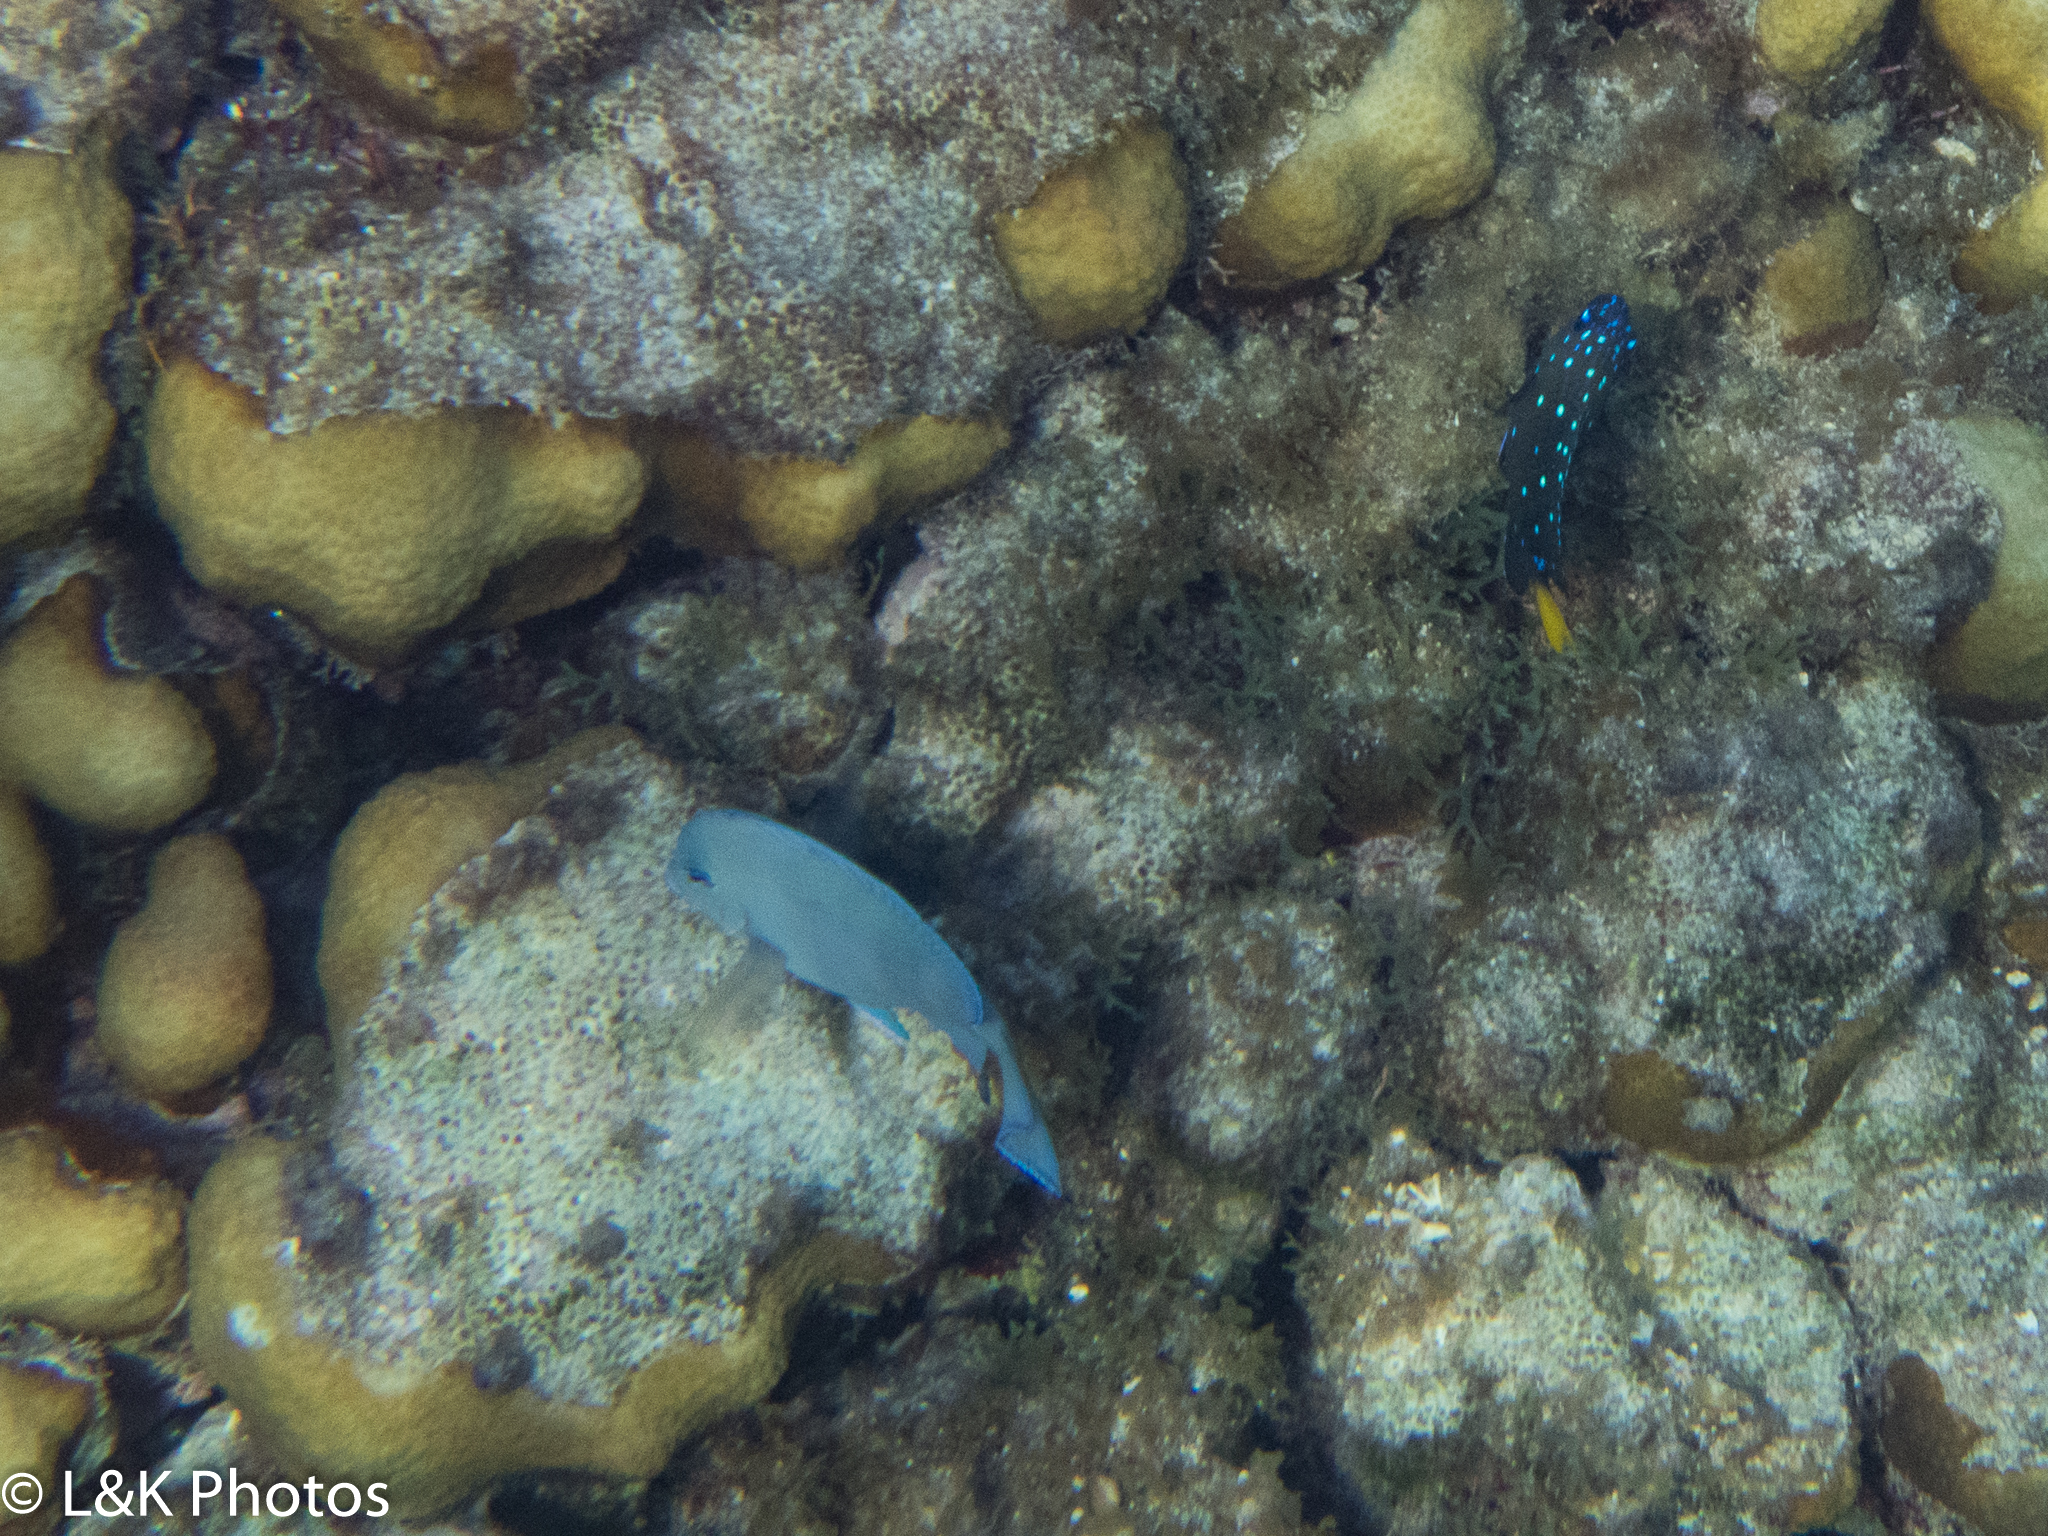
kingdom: Animalia
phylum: Chordata
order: Perciformes
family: Pomacentridae
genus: Microspathodon
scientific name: Microspathodon chrysurus
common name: Yellowtail damselfish
